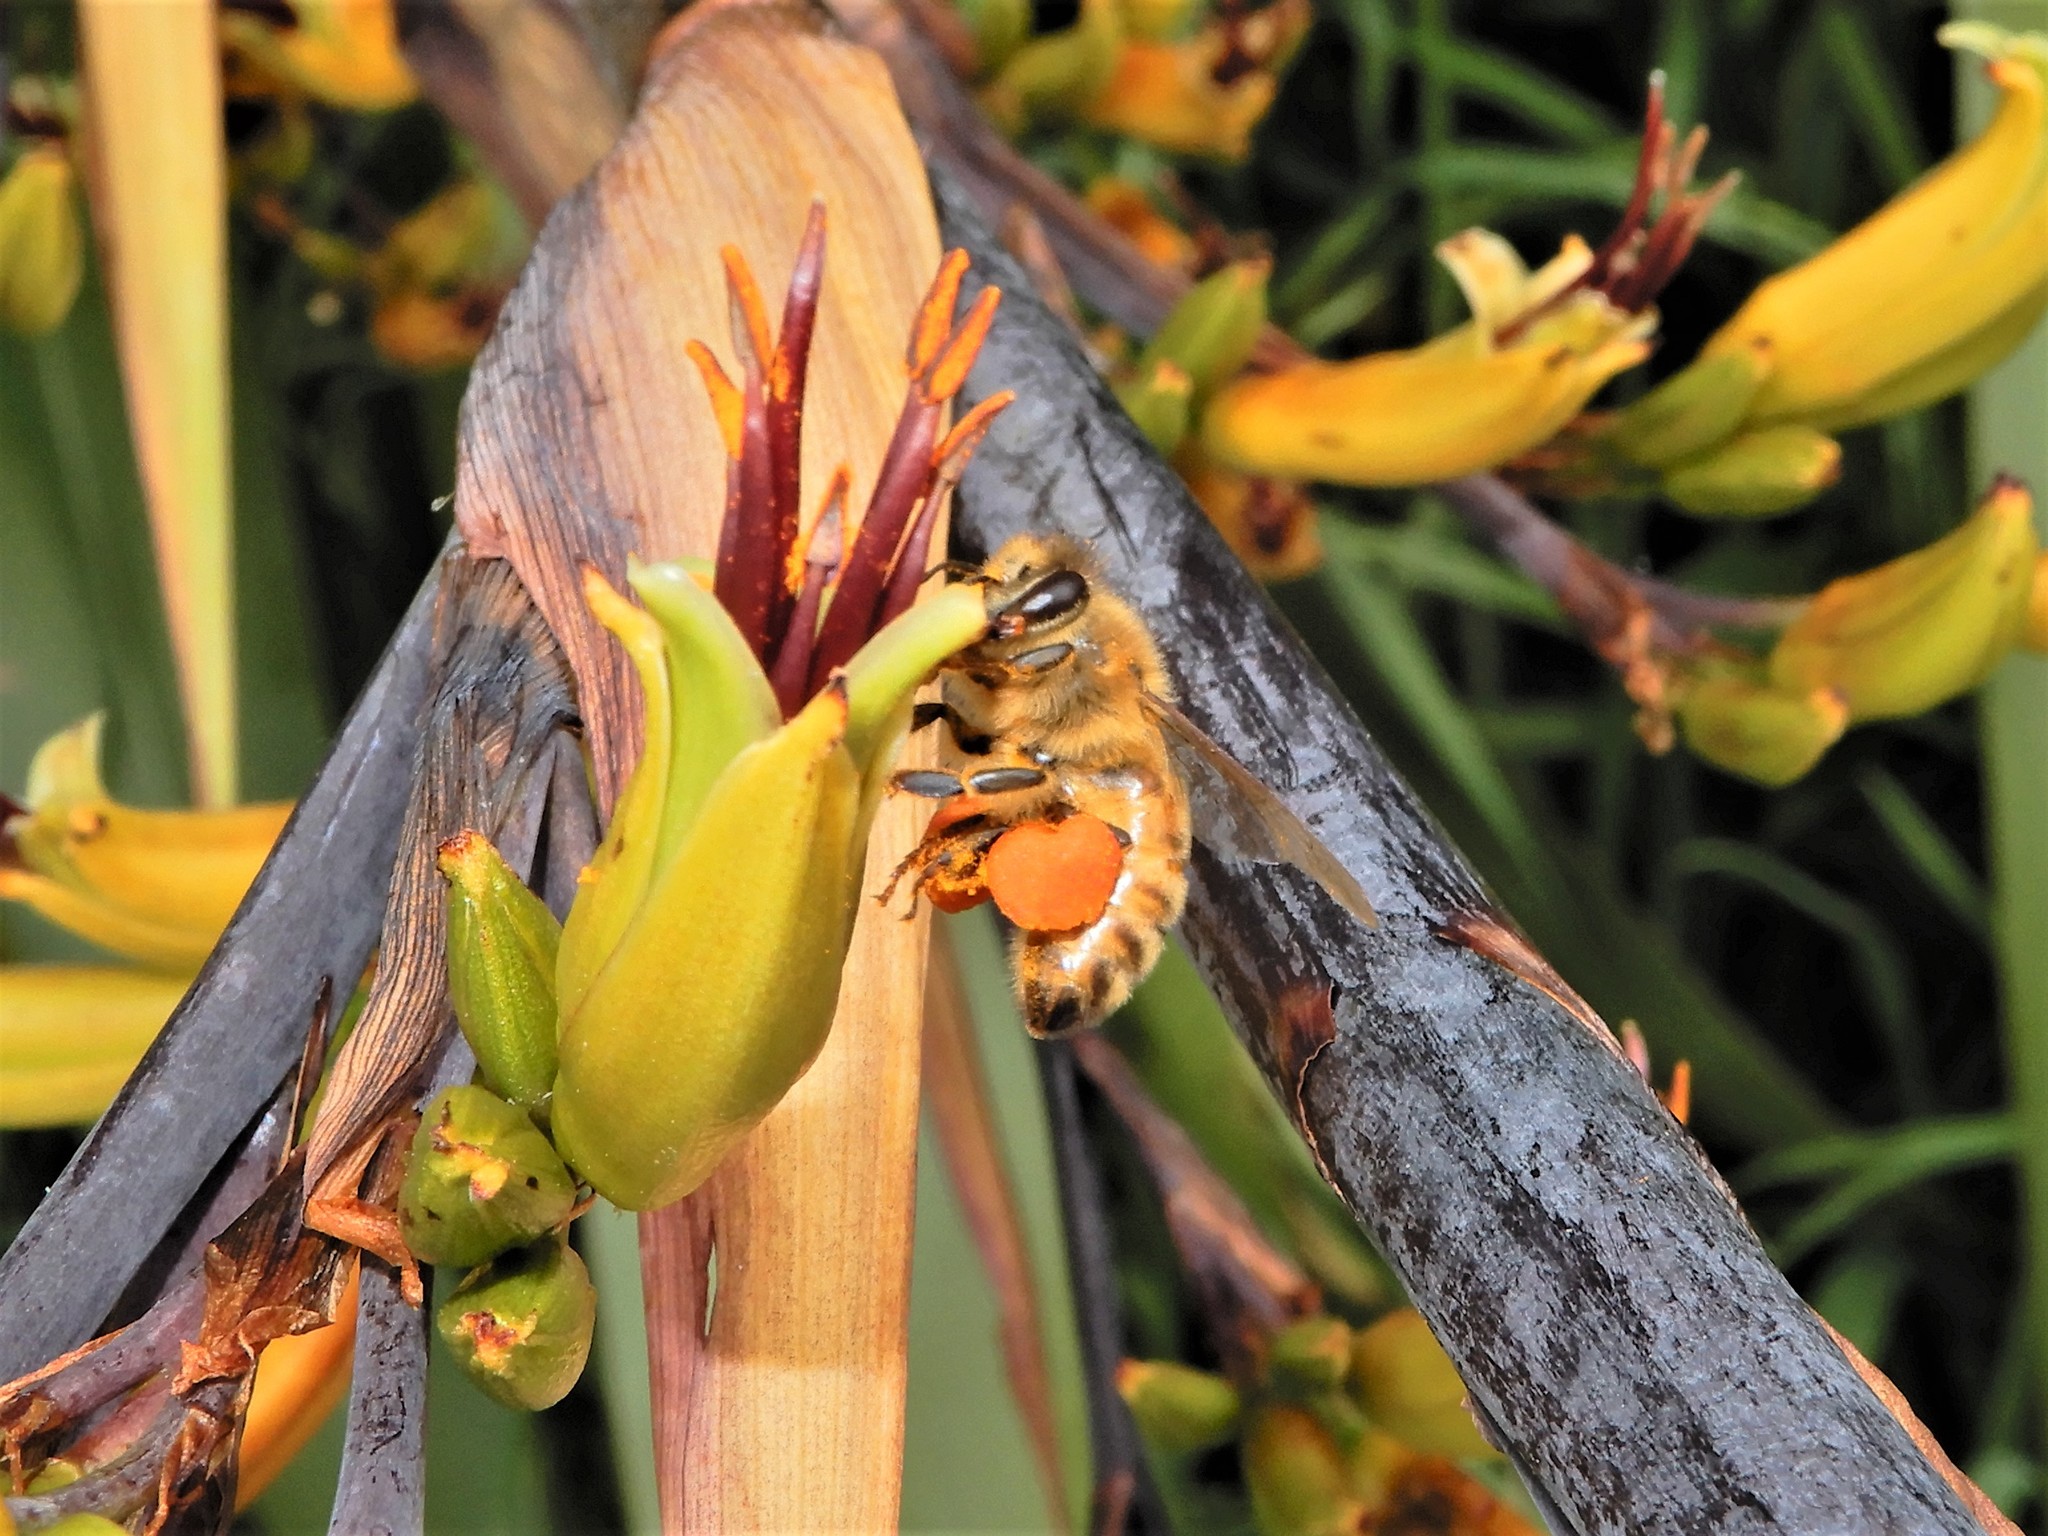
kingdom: Animalia
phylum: Arthropoda
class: Insecta
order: Hymenoptera
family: Apidae
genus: Apis
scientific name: Apis mellifera
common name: Honey bee
